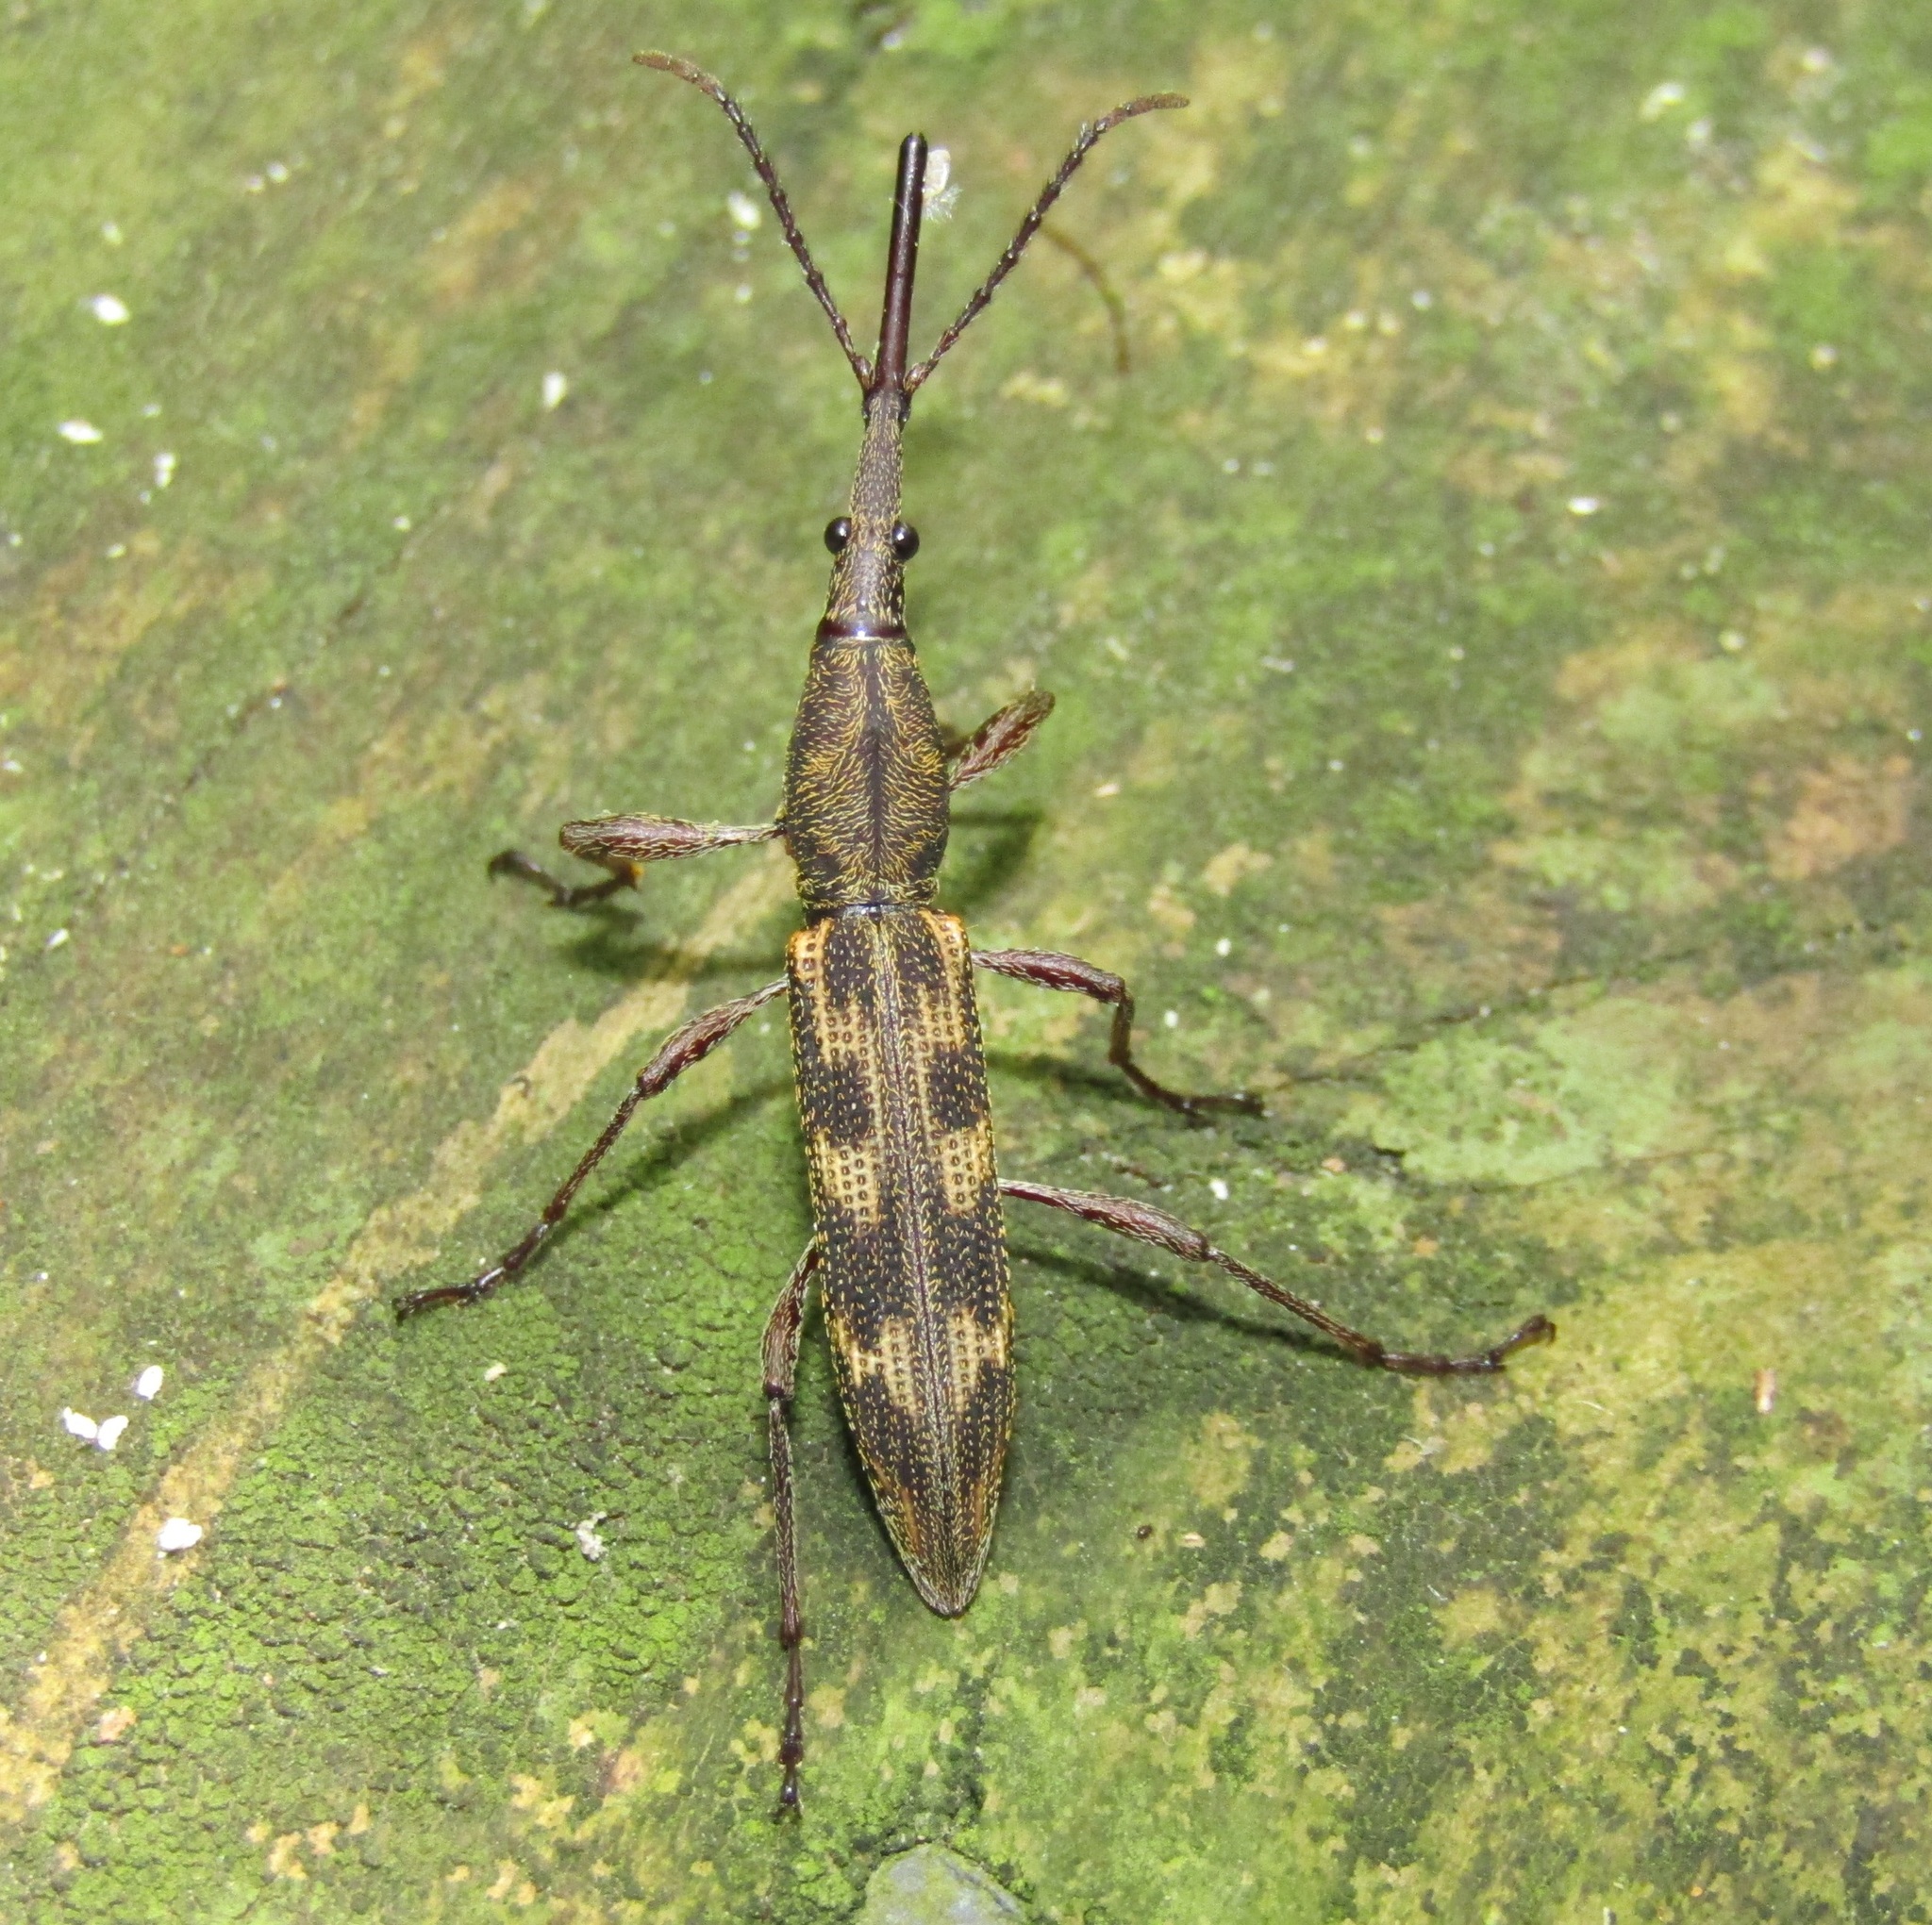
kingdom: Animalia
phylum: Arthropoda
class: Insecta
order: Coleoptera
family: Brentidae
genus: Lasiorhynchus
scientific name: Lasiorhynchus barbicornis
